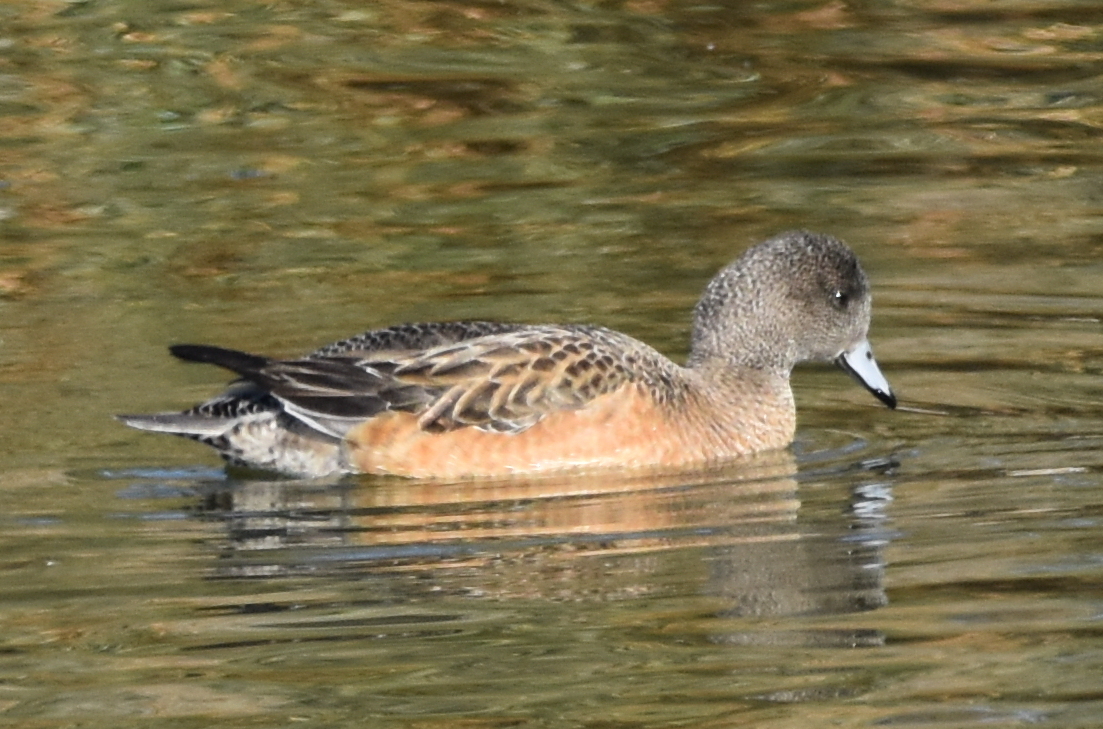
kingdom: Animalia
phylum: Chordata
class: Aves
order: Anseriformes
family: Anatidae
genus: Mareca
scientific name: Mareca americana
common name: American wigeon
